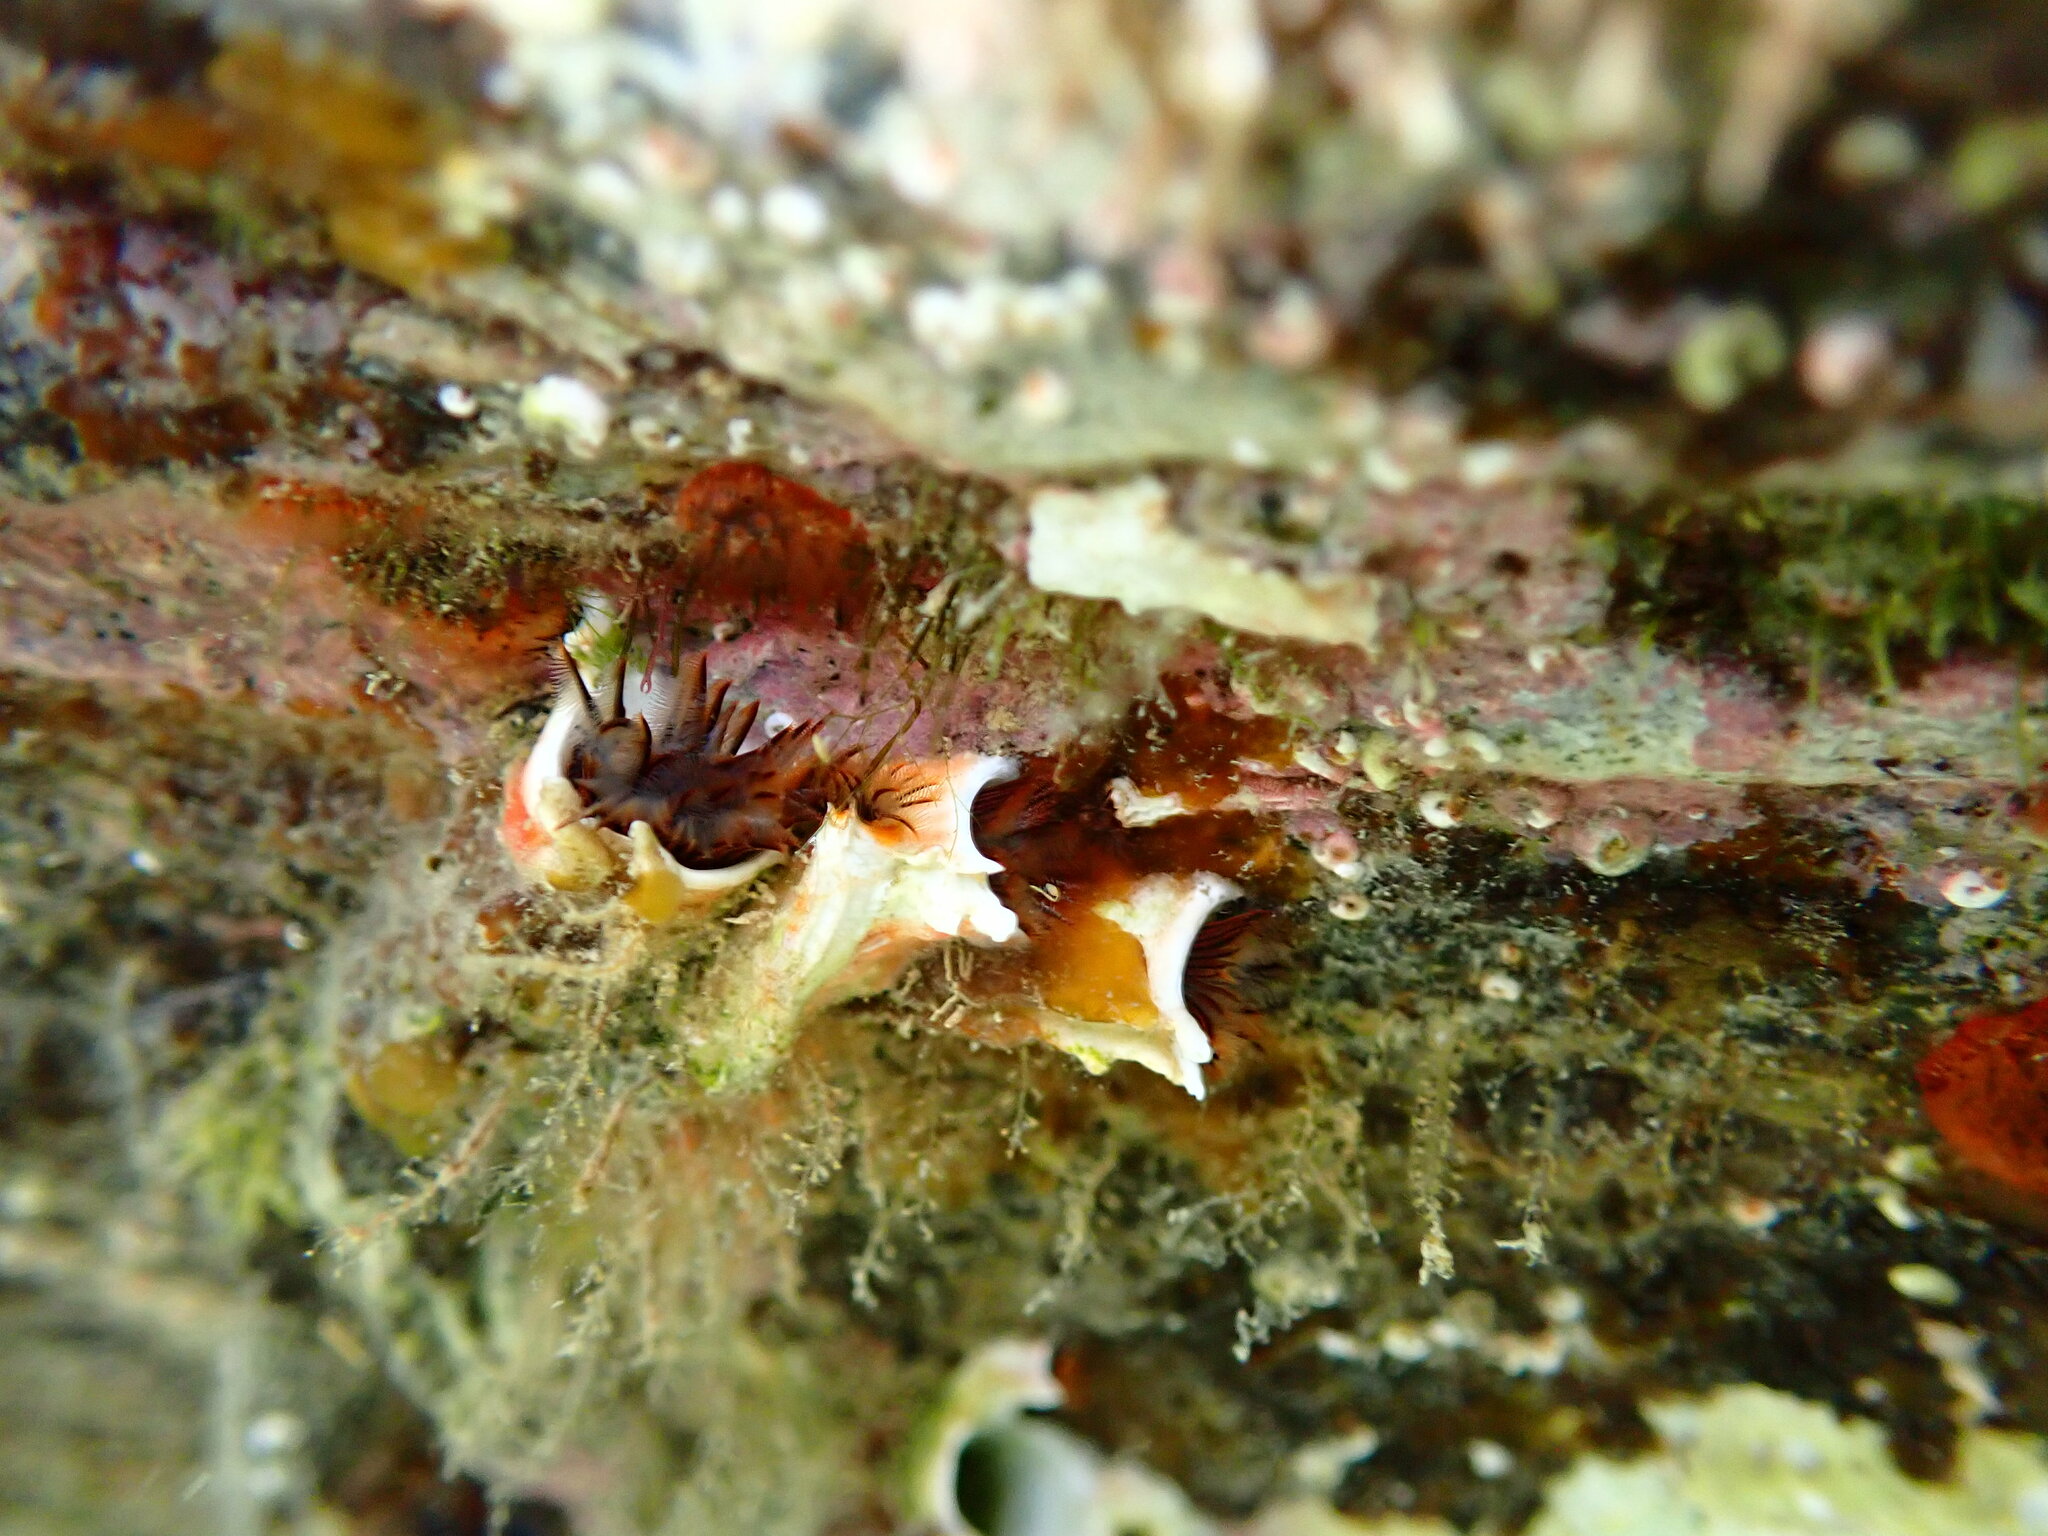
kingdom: Animalia
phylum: Annelida
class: Polychaeta
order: Sabellida
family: Serpulidae
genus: Galeolaria
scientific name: Galeolaria hystrix
